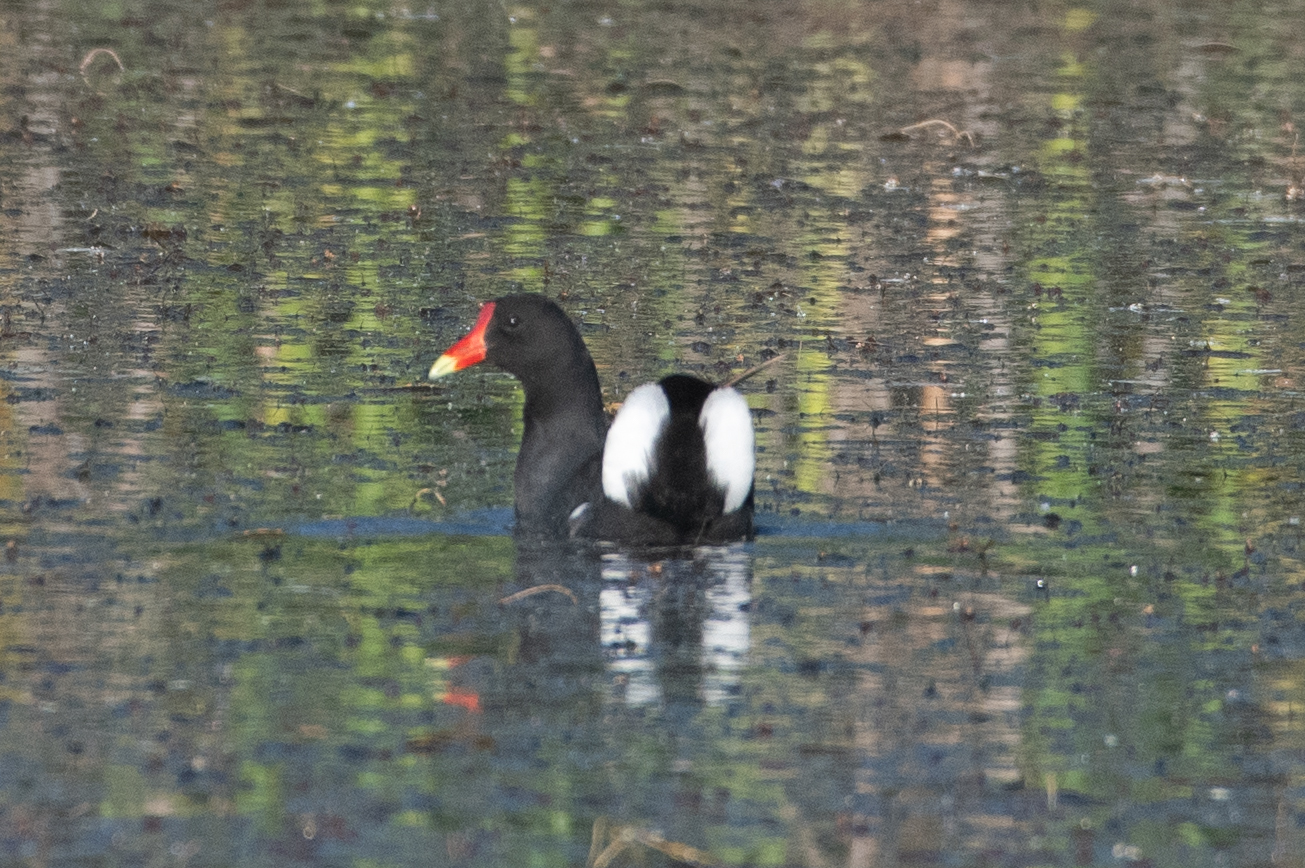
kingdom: Animalia
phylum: Chordata
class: Aves
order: Gruiformes
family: Rallidae
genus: Gallinula
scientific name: Gallinula chloropus
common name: Common moorhen
